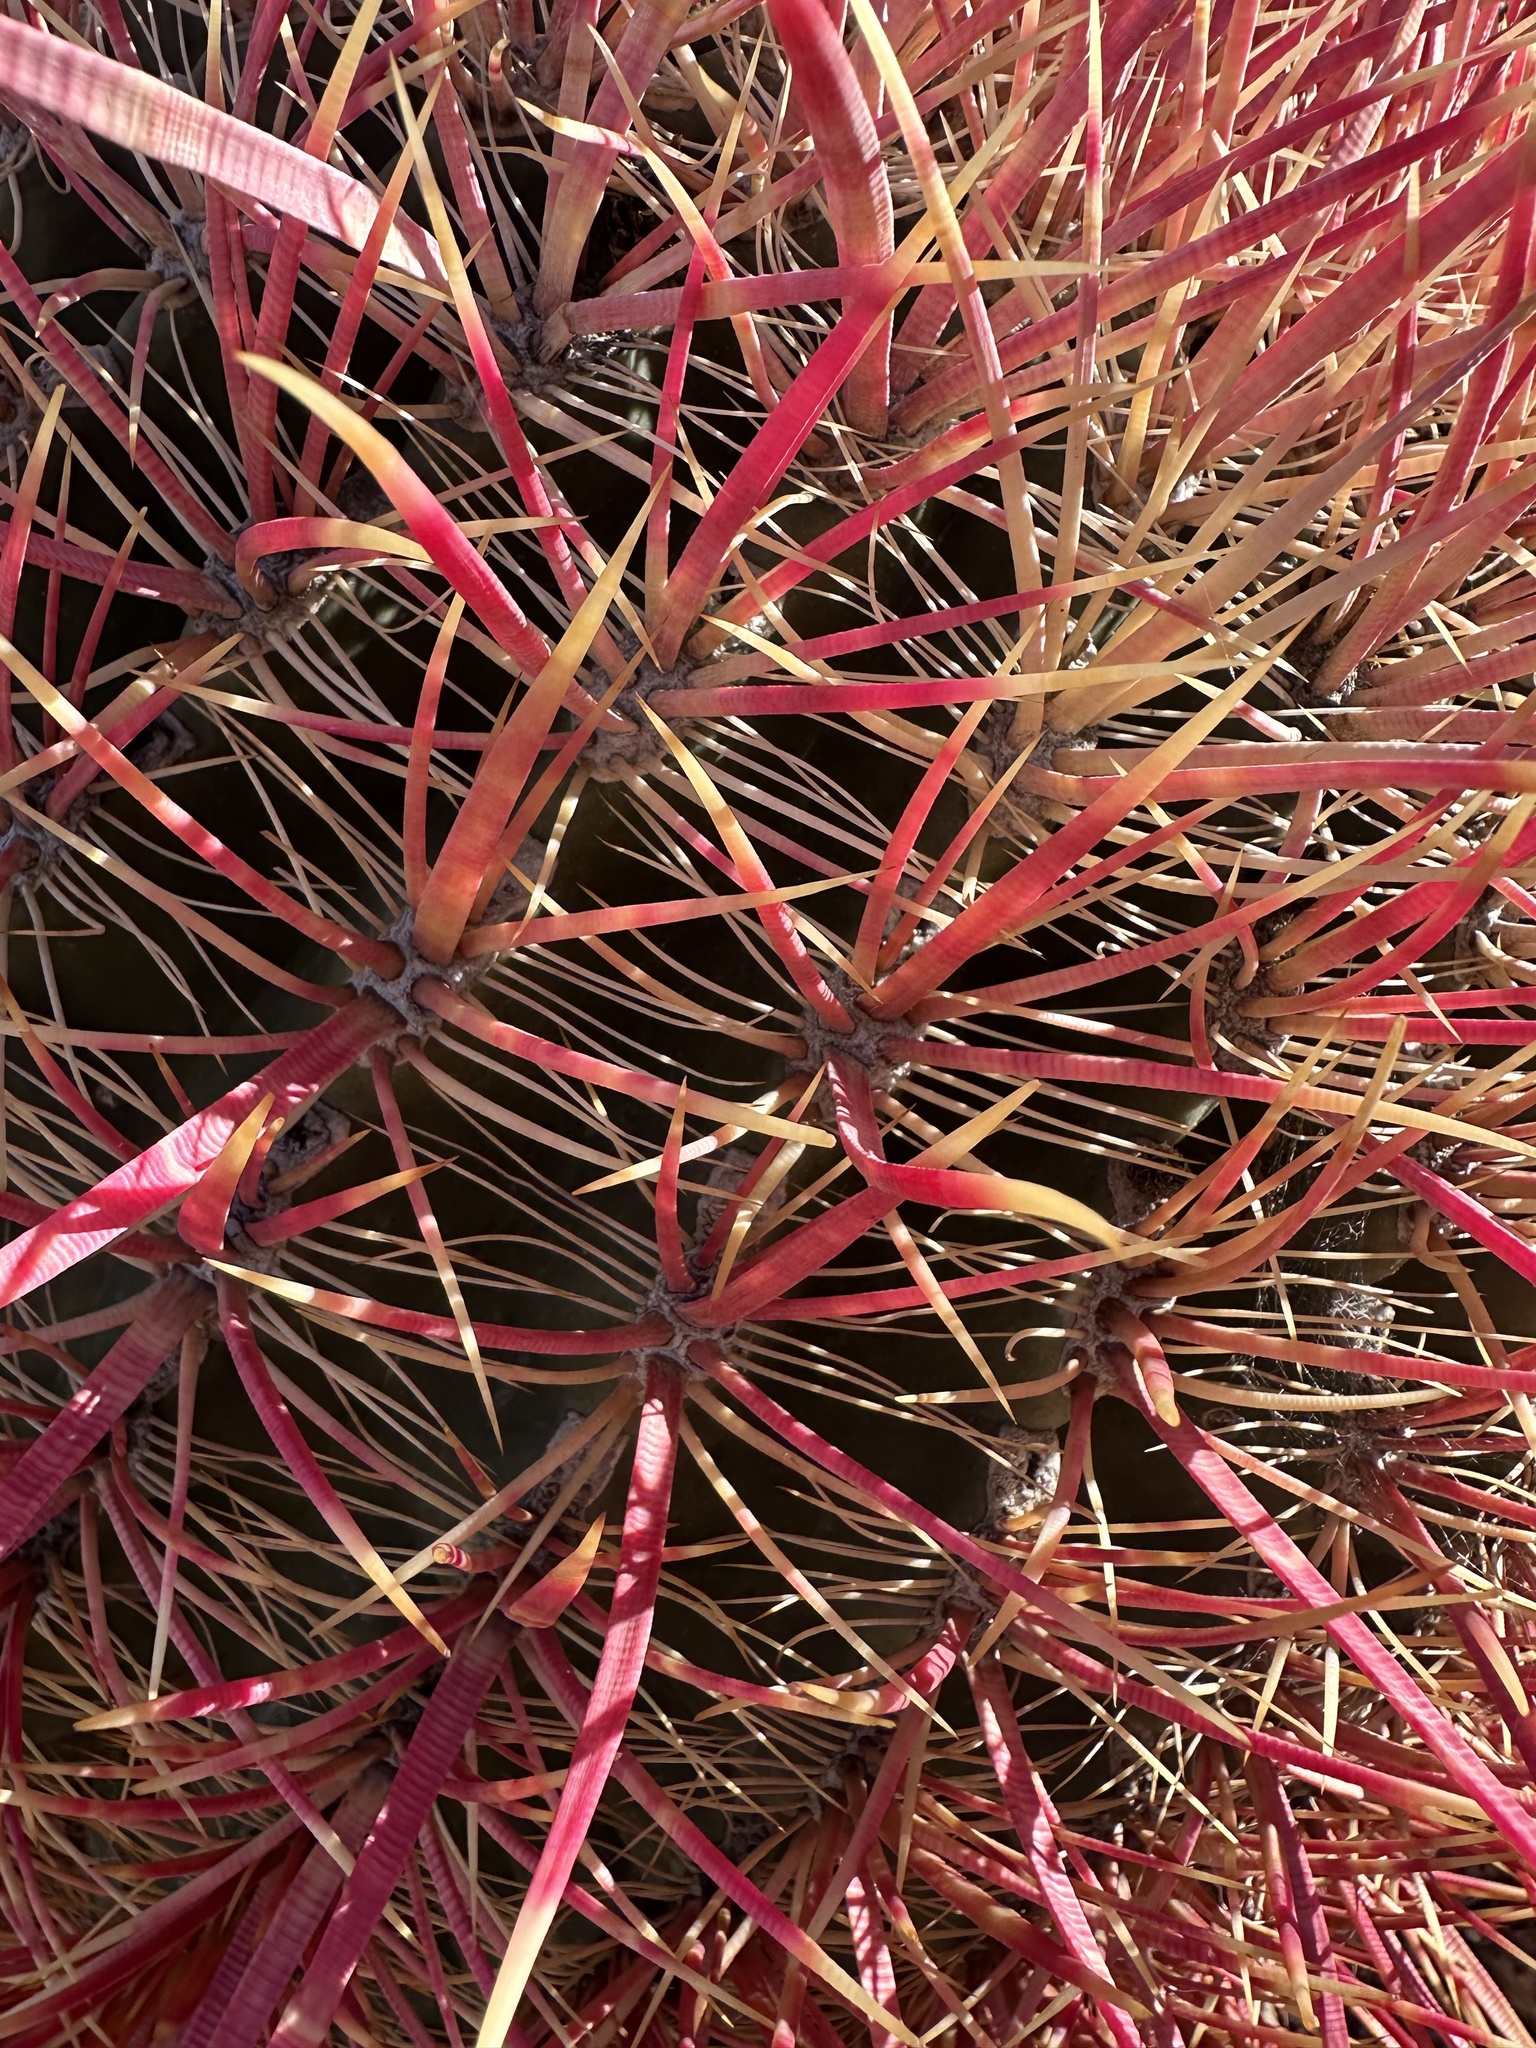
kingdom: Plantae
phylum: Tracheophyta
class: Magnoliopsida
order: Caryophyllales
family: Cactaceae
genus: Ferocactus
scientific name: Ferocactus cylindraceus
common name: California barrel cactus
